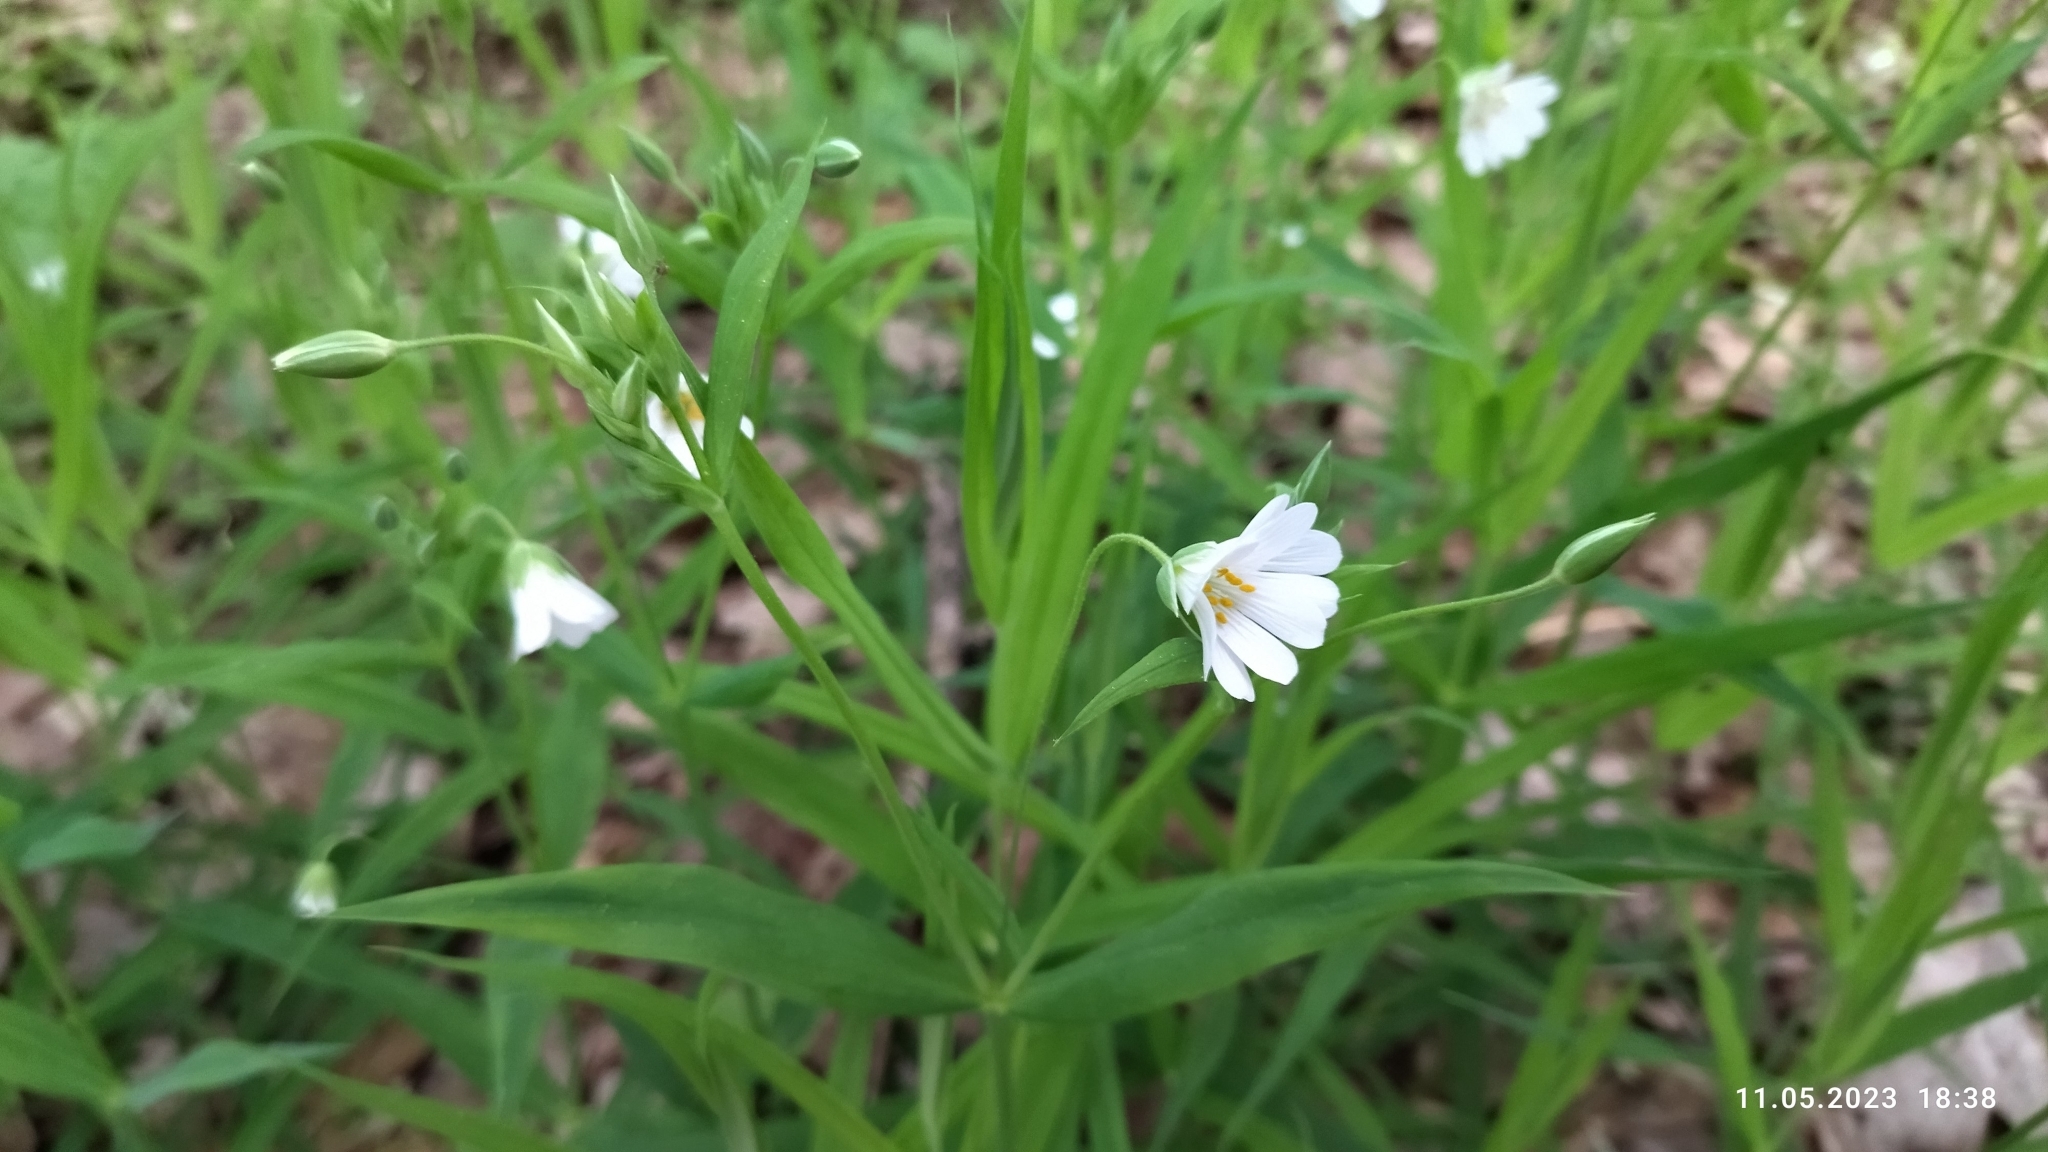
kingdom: Plantae
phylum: Tracheophyta
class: Magnoliopsida
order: Caryophyllales
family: Caryophyllaceae
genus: Rabelera
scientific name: Rabelera holostea
